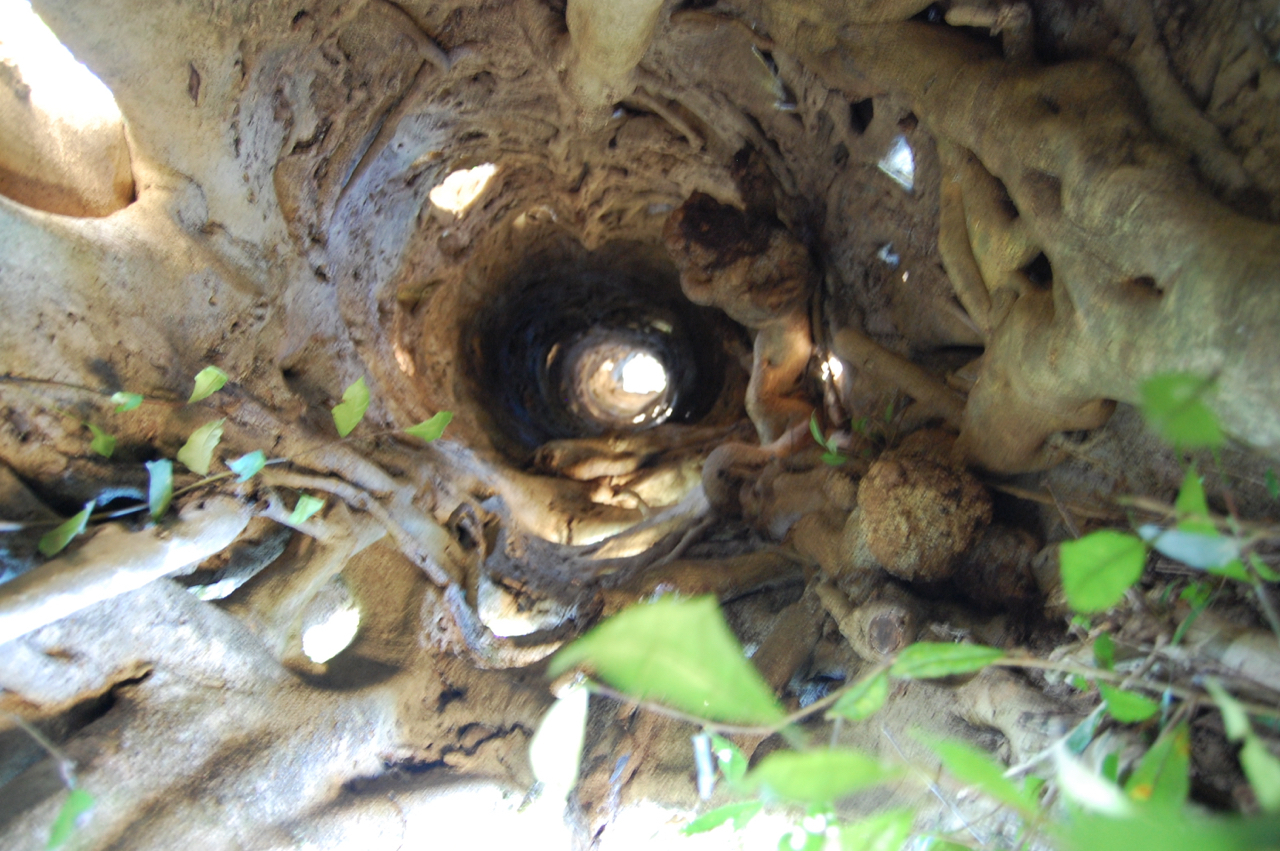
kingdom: Plantae
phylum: Tracheophyta
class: Magnoliopsida
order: Rosales
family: Moraceae
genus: Ficus
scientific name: Ficus dendrocida
